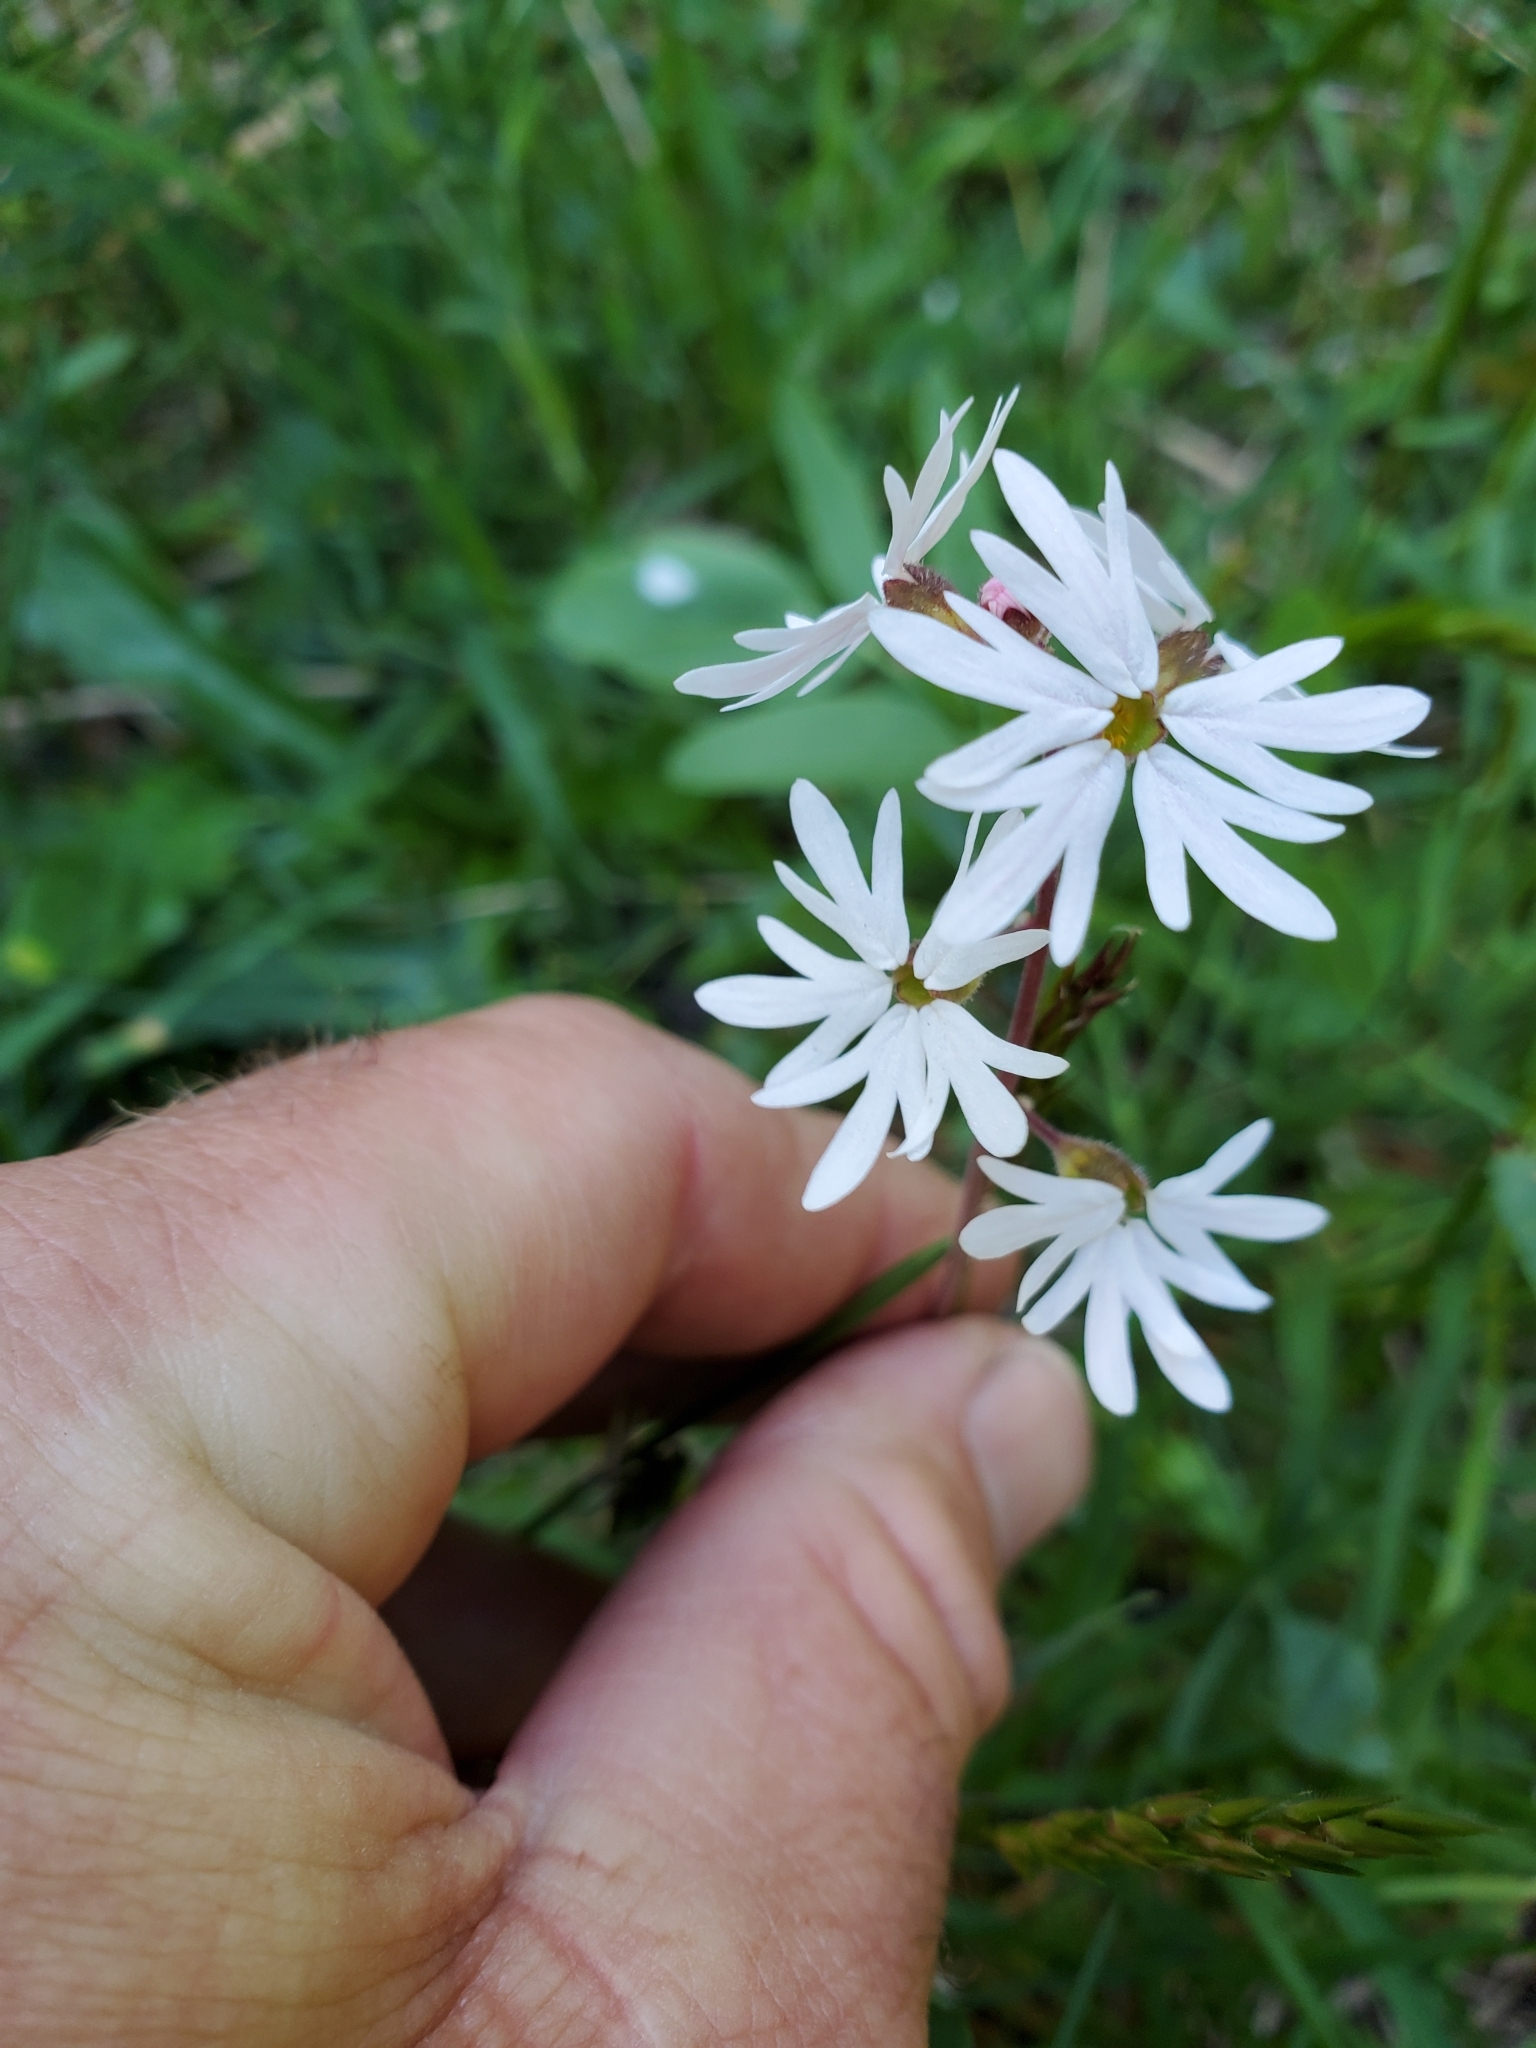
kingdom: Plantae
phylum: Tracheophyta
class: Magnoliopsida
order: Saxifragales
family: Saxifragaceae
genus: Lithophragma
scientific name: Lithophragma parviflorum
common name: Small-flowered fringe-cup
